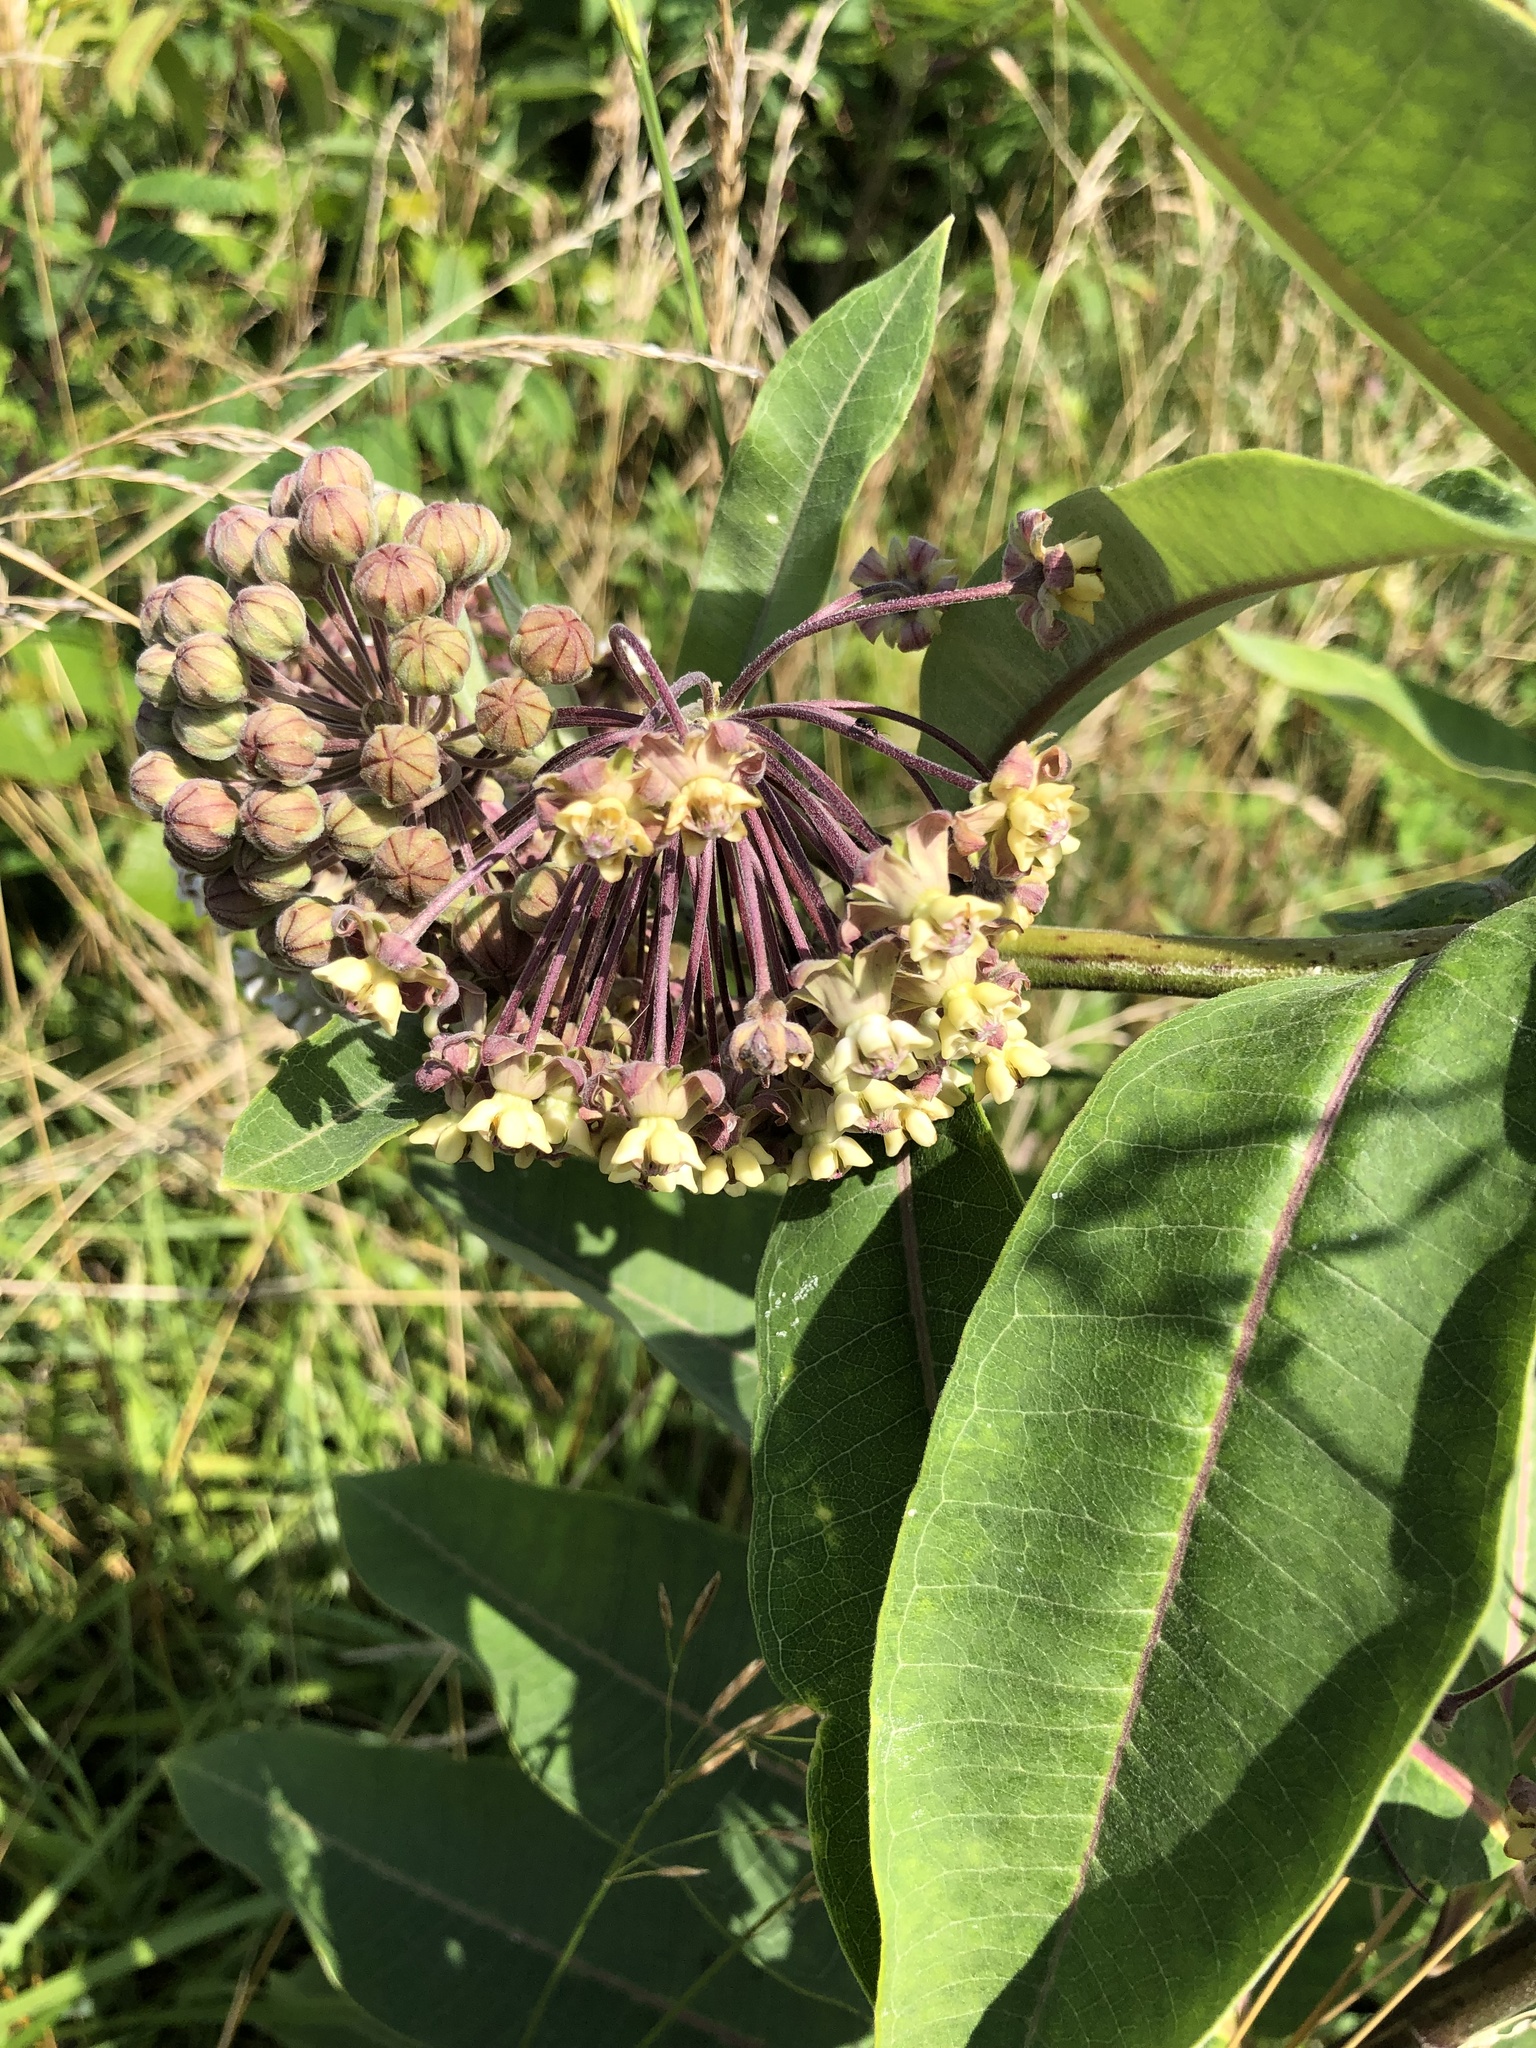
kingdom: Plantae
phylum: Tracheophyta
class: Magnoliopsida
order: Gentianales
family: Apocynaceae
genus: Asclepias
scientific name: Asclepias syriaca
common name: Common milkweed
